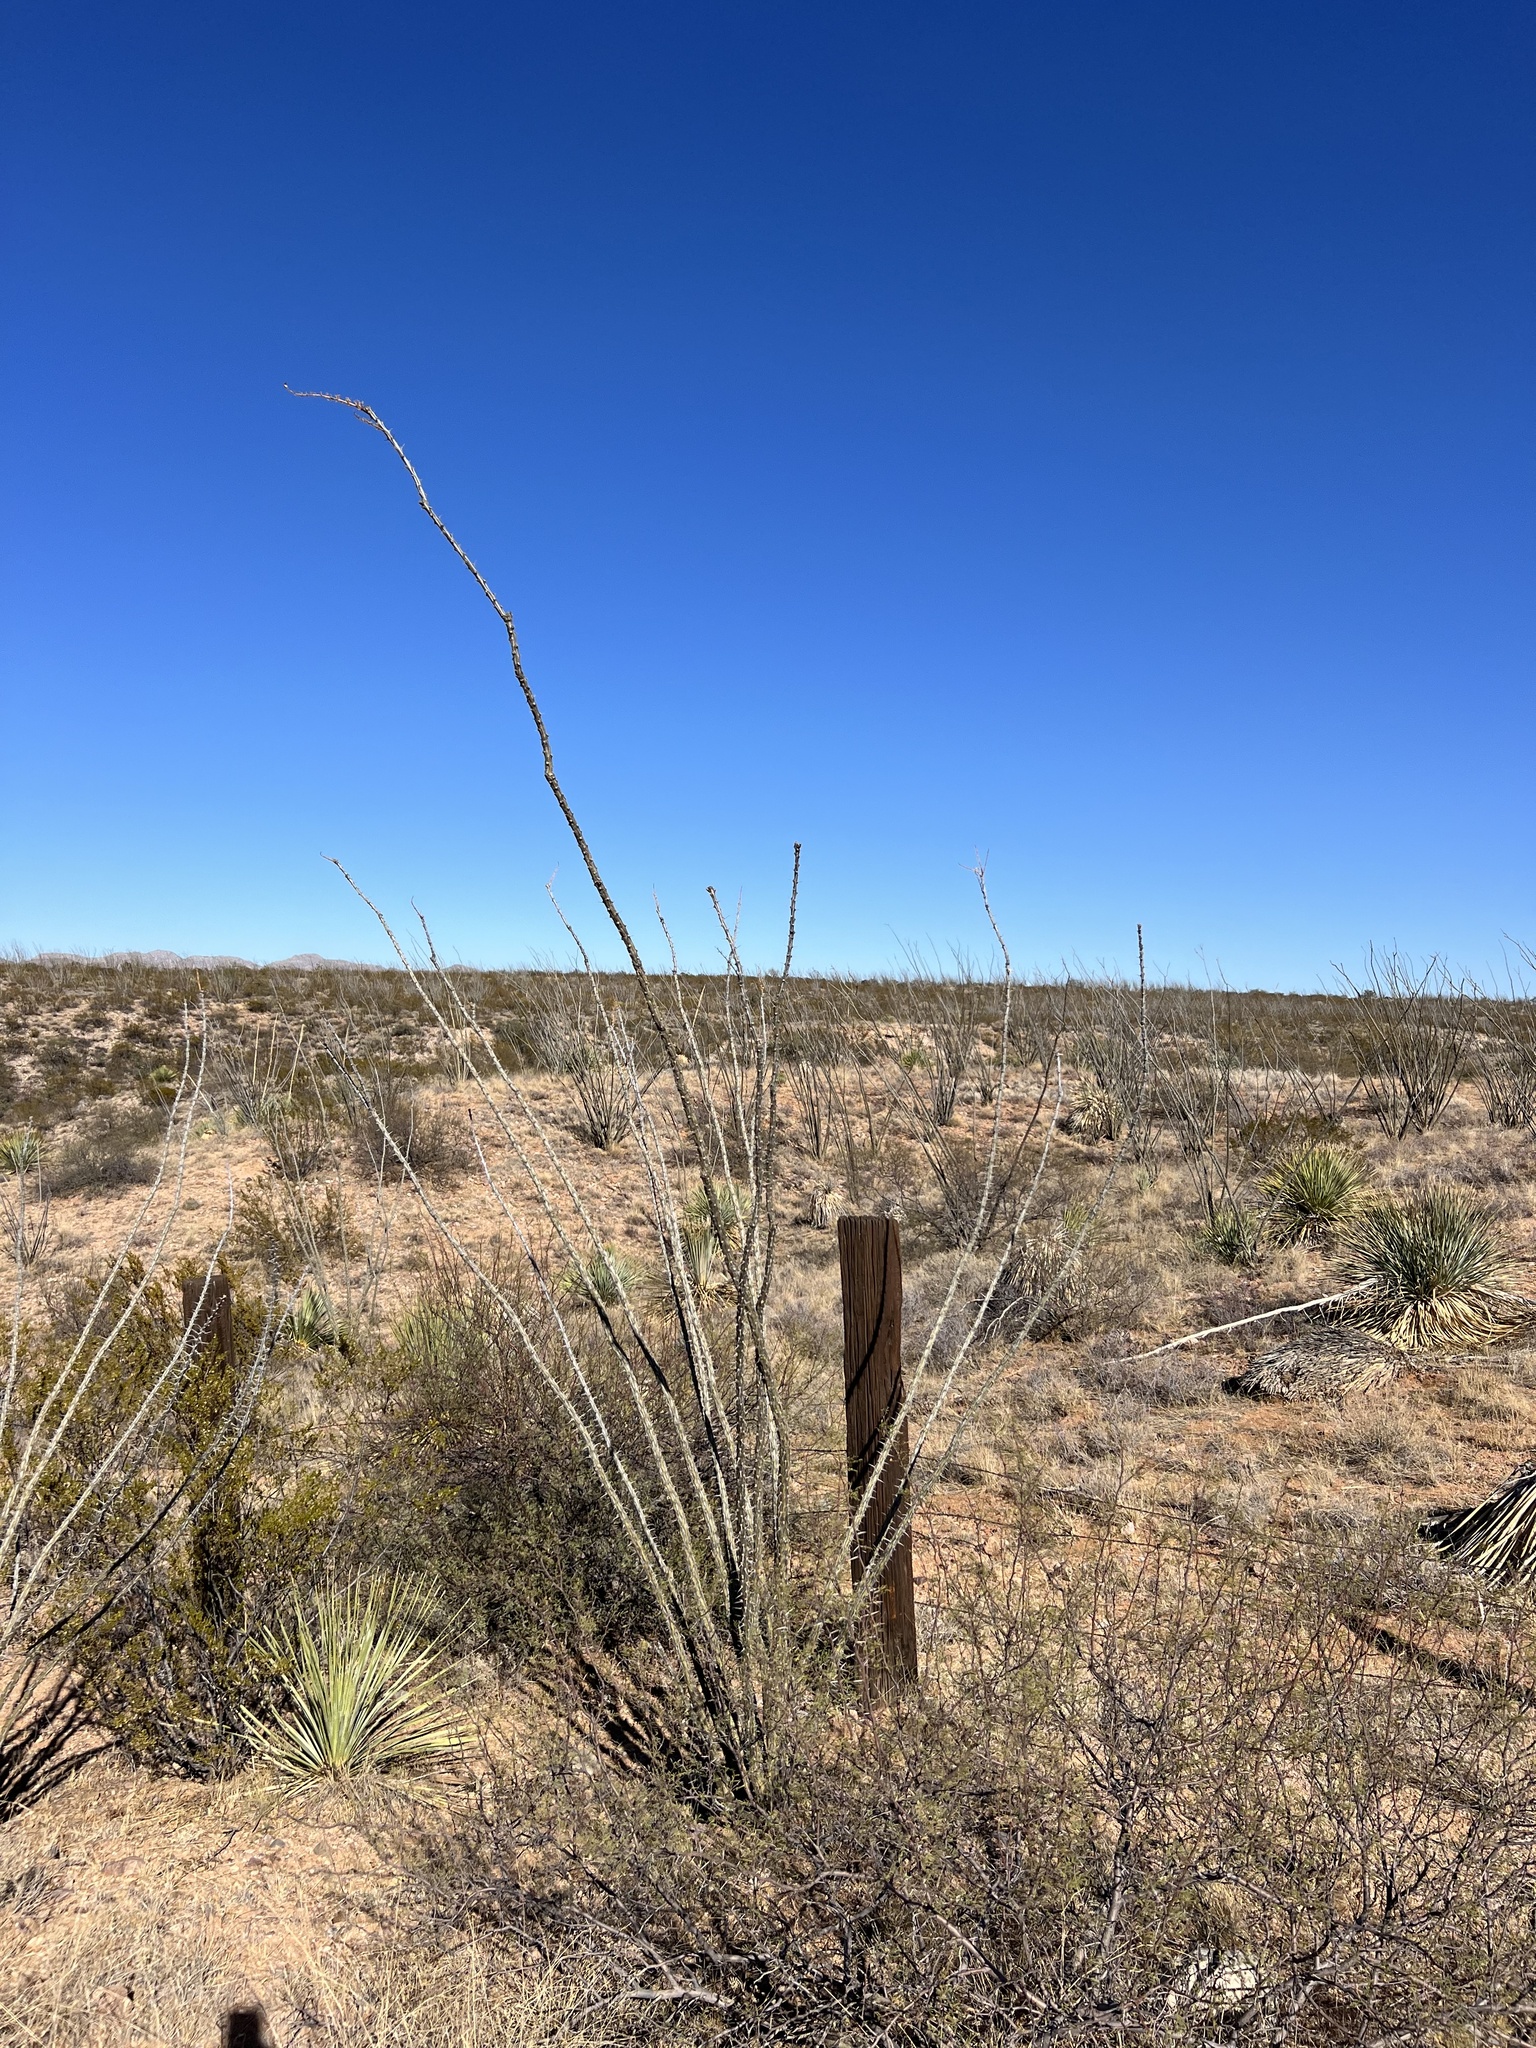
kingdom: Plantae
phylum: Tracheophyta
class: Magnoliopsida
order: Ericales
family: Fouquieriaceae
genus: Fouquieria
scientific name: Fouquieria splendens
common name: Vine-cactus
